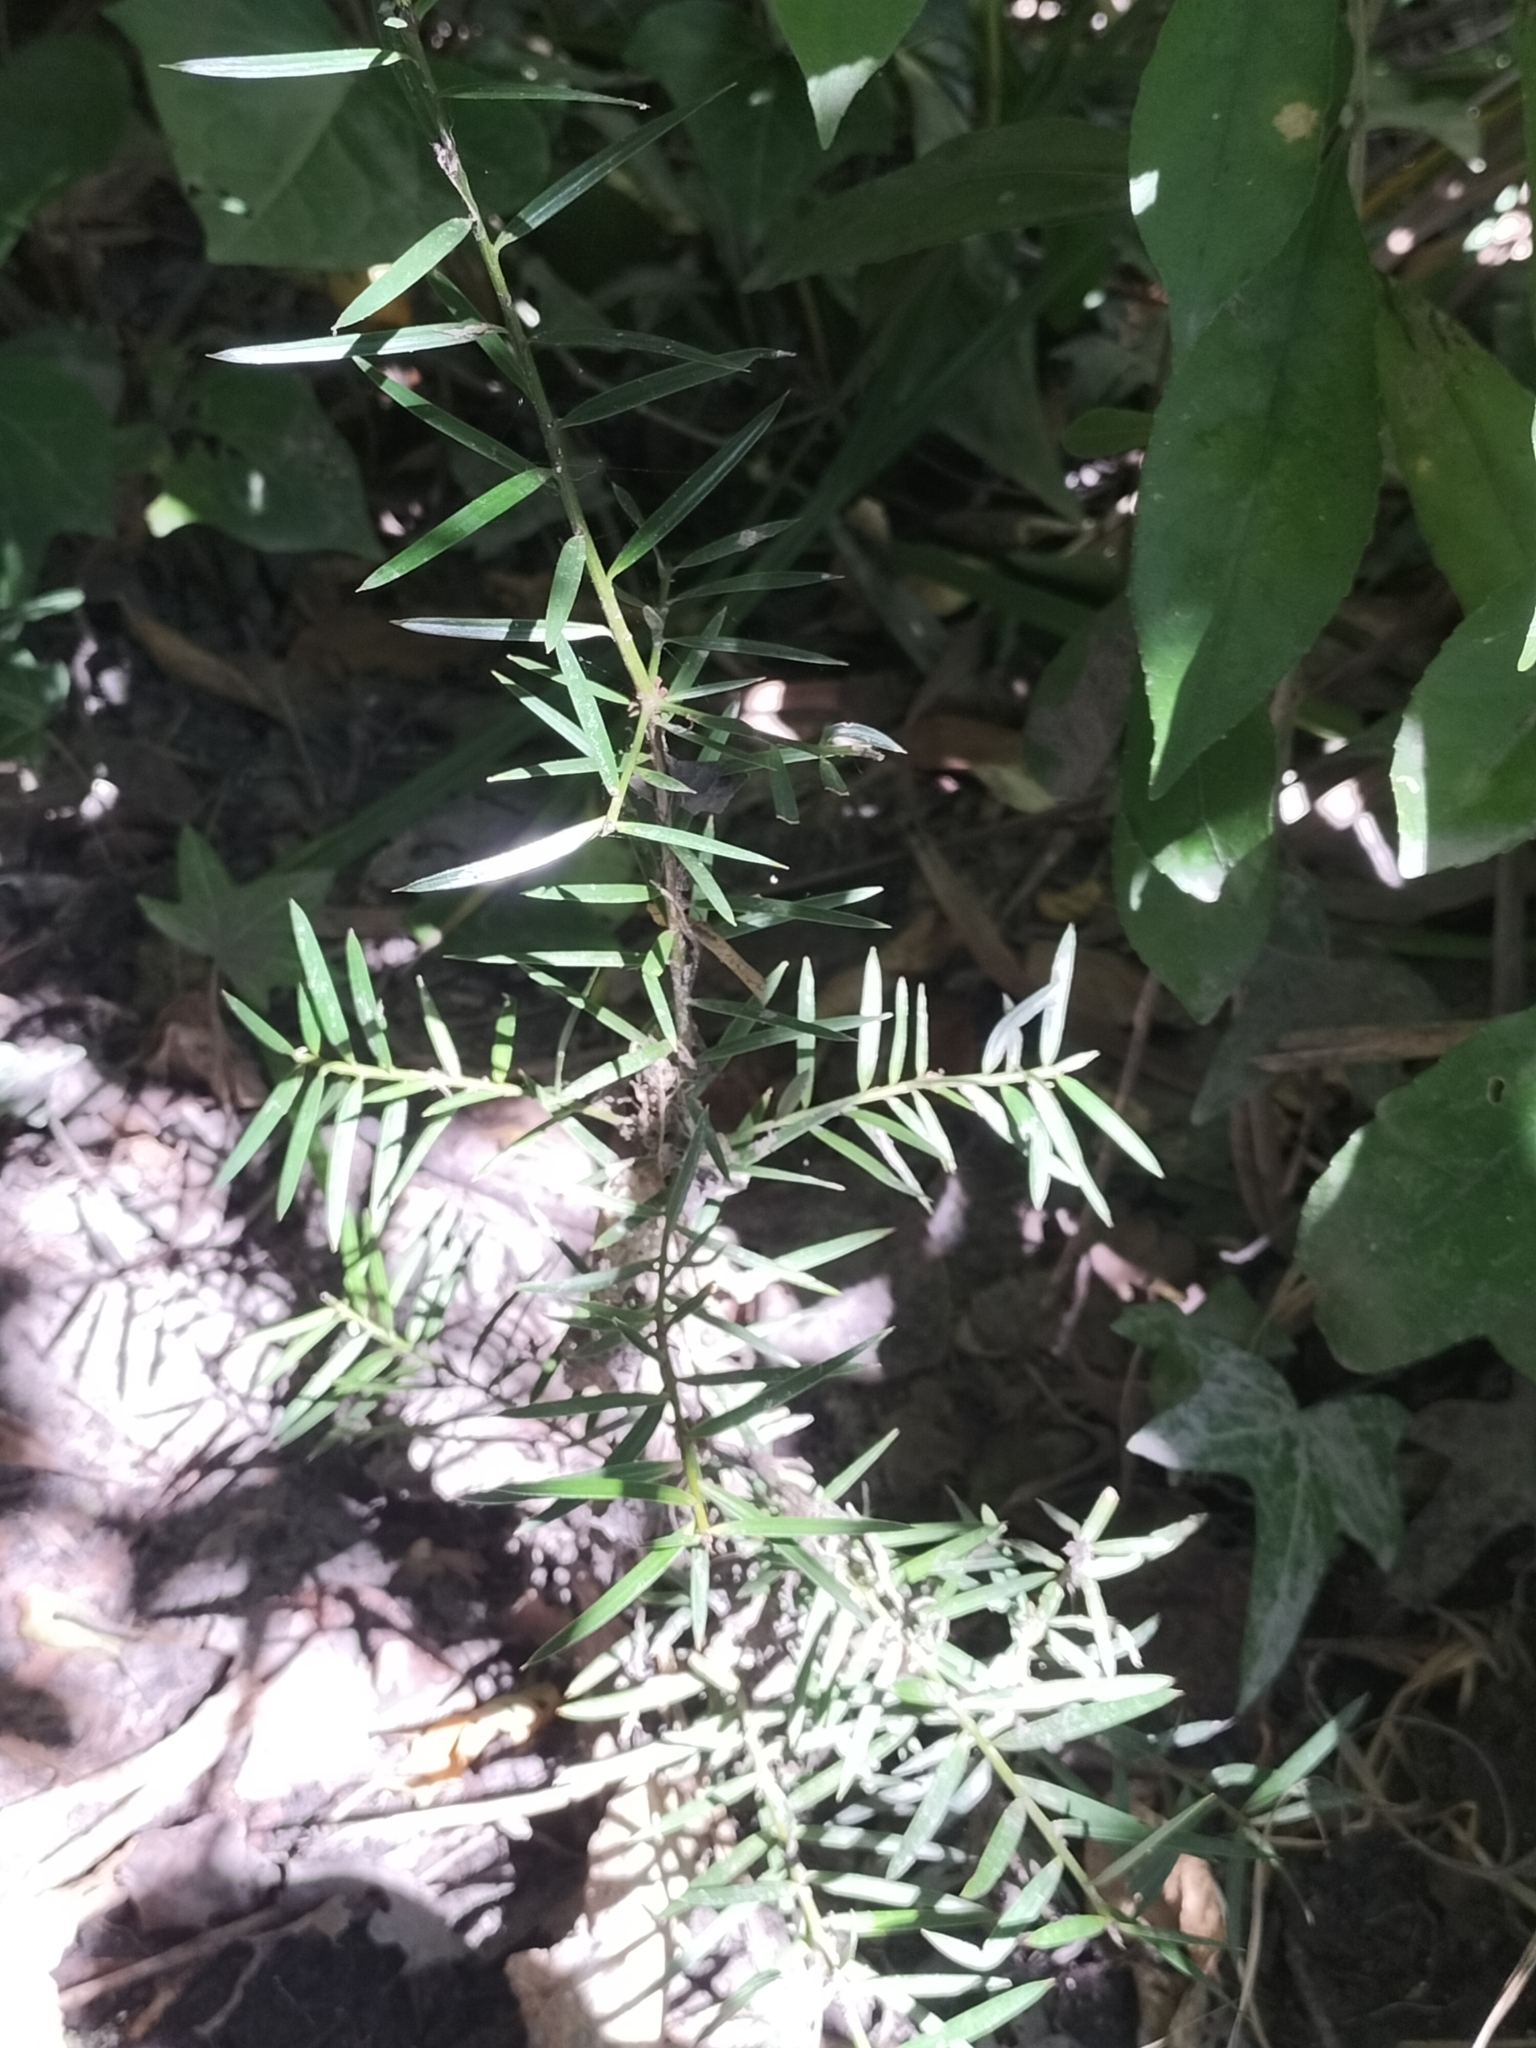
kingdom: Plantae
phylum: Tracheophyta
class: Pinopsida
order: Pinales
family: Podocarpaceae
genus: Podocarpus
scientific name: Podocarpus totara
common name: Totara
